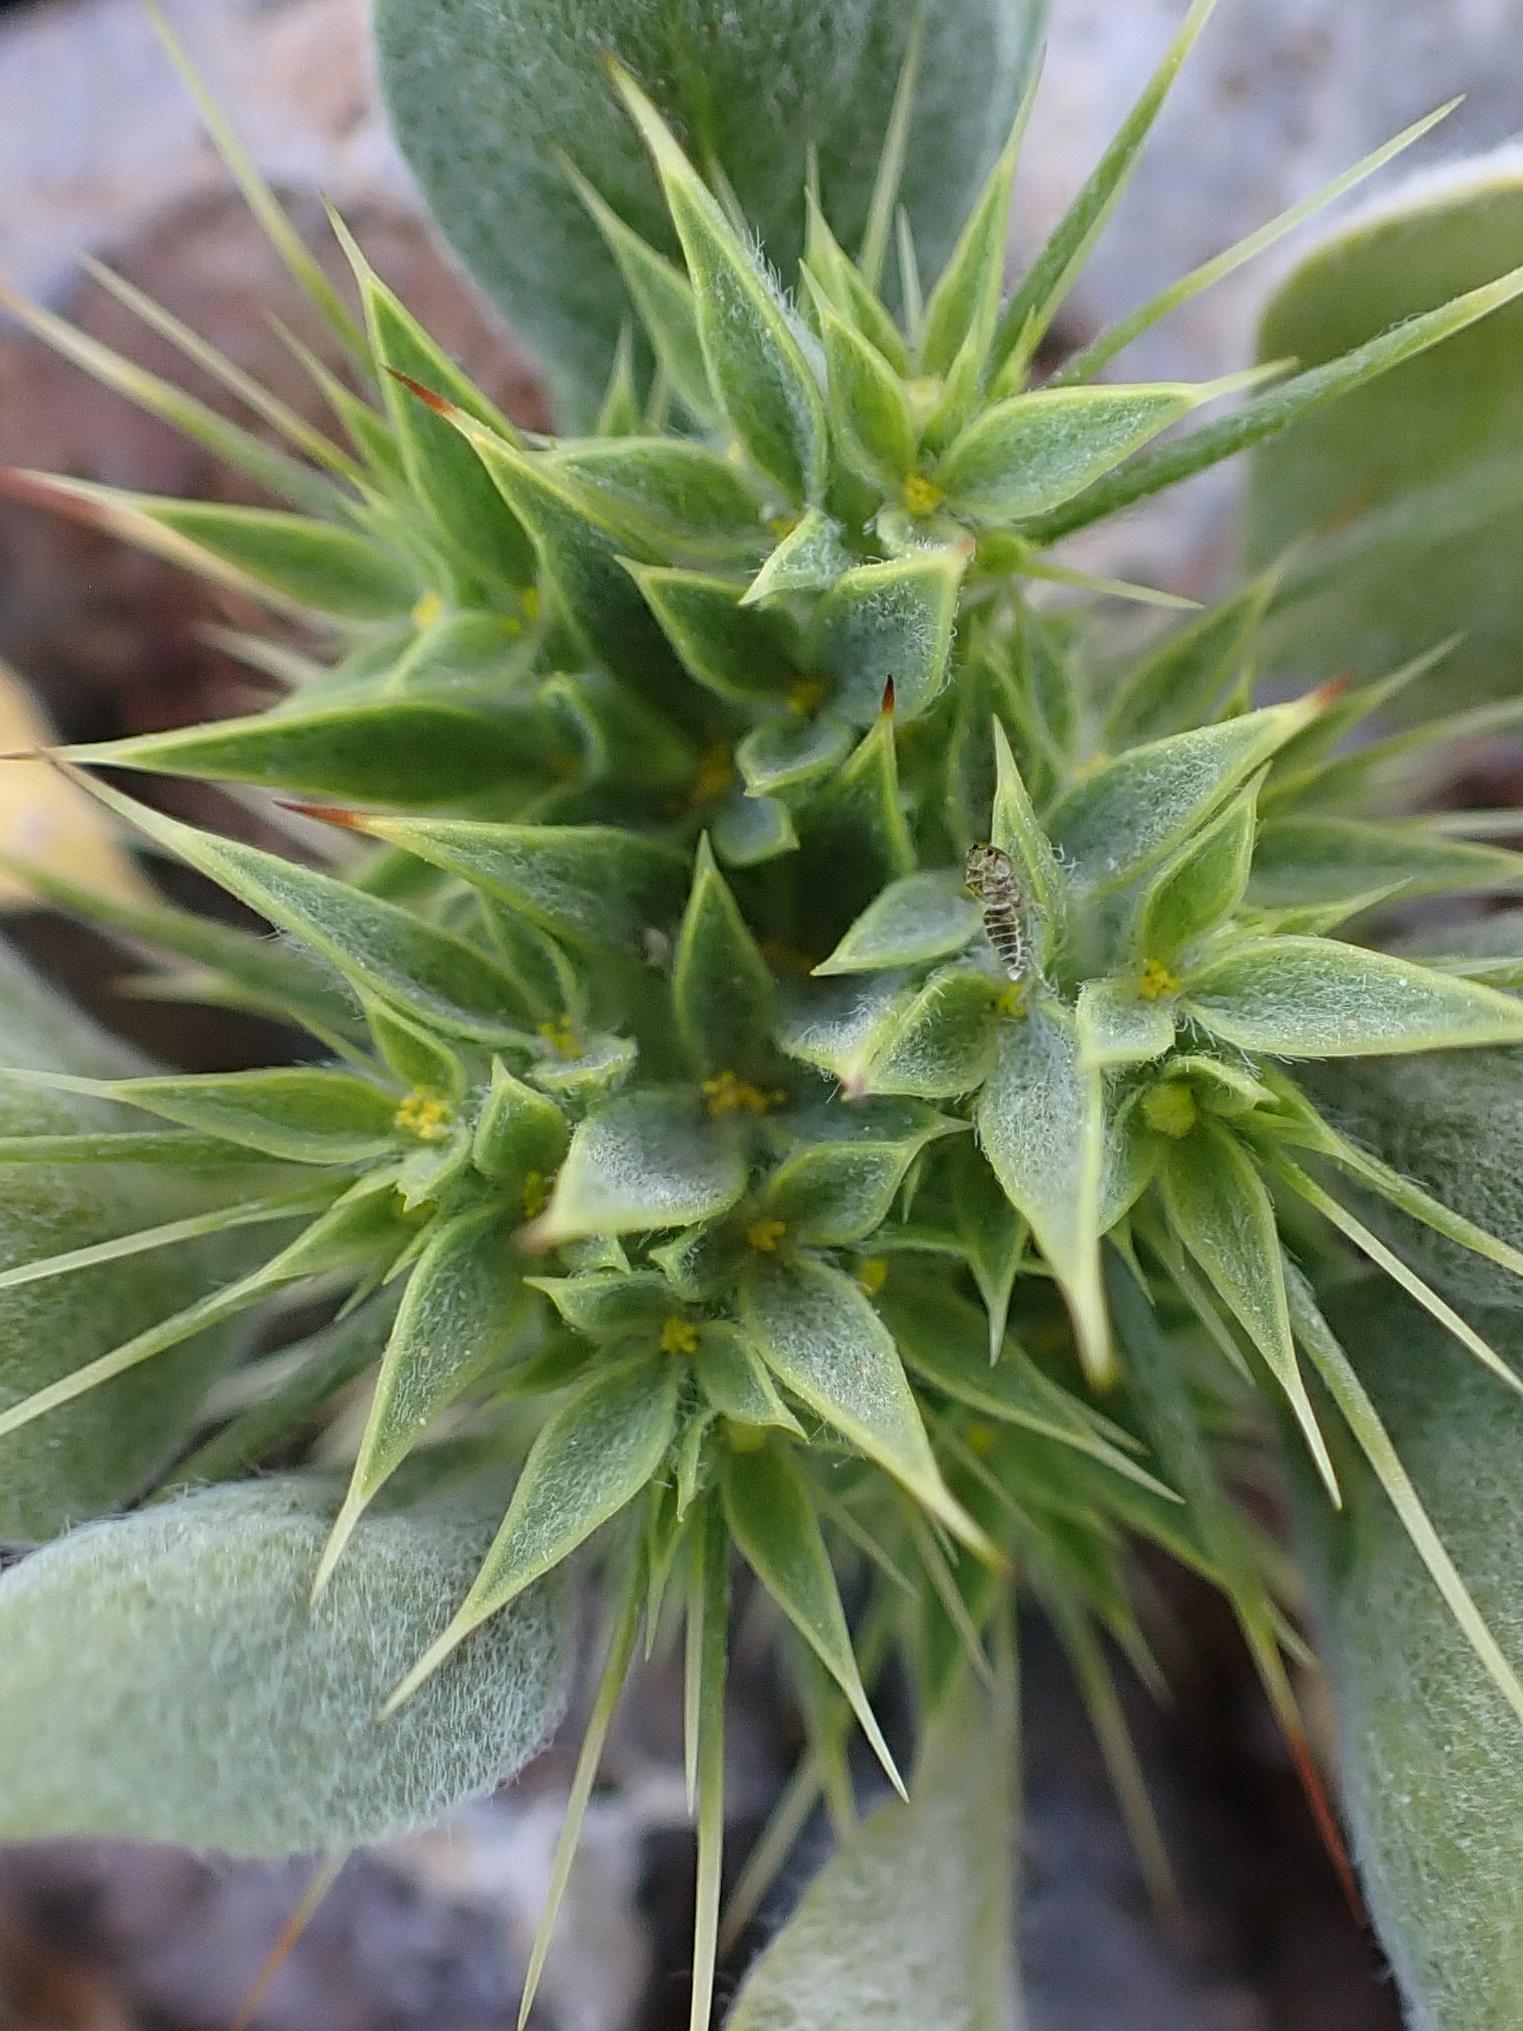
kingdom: Plantae
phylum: Tracheophyta
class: Magnoliopsida
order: Caryophyllales
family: Polygonaceae
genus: Chorizanthe
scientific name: Chorizanthe rigida
